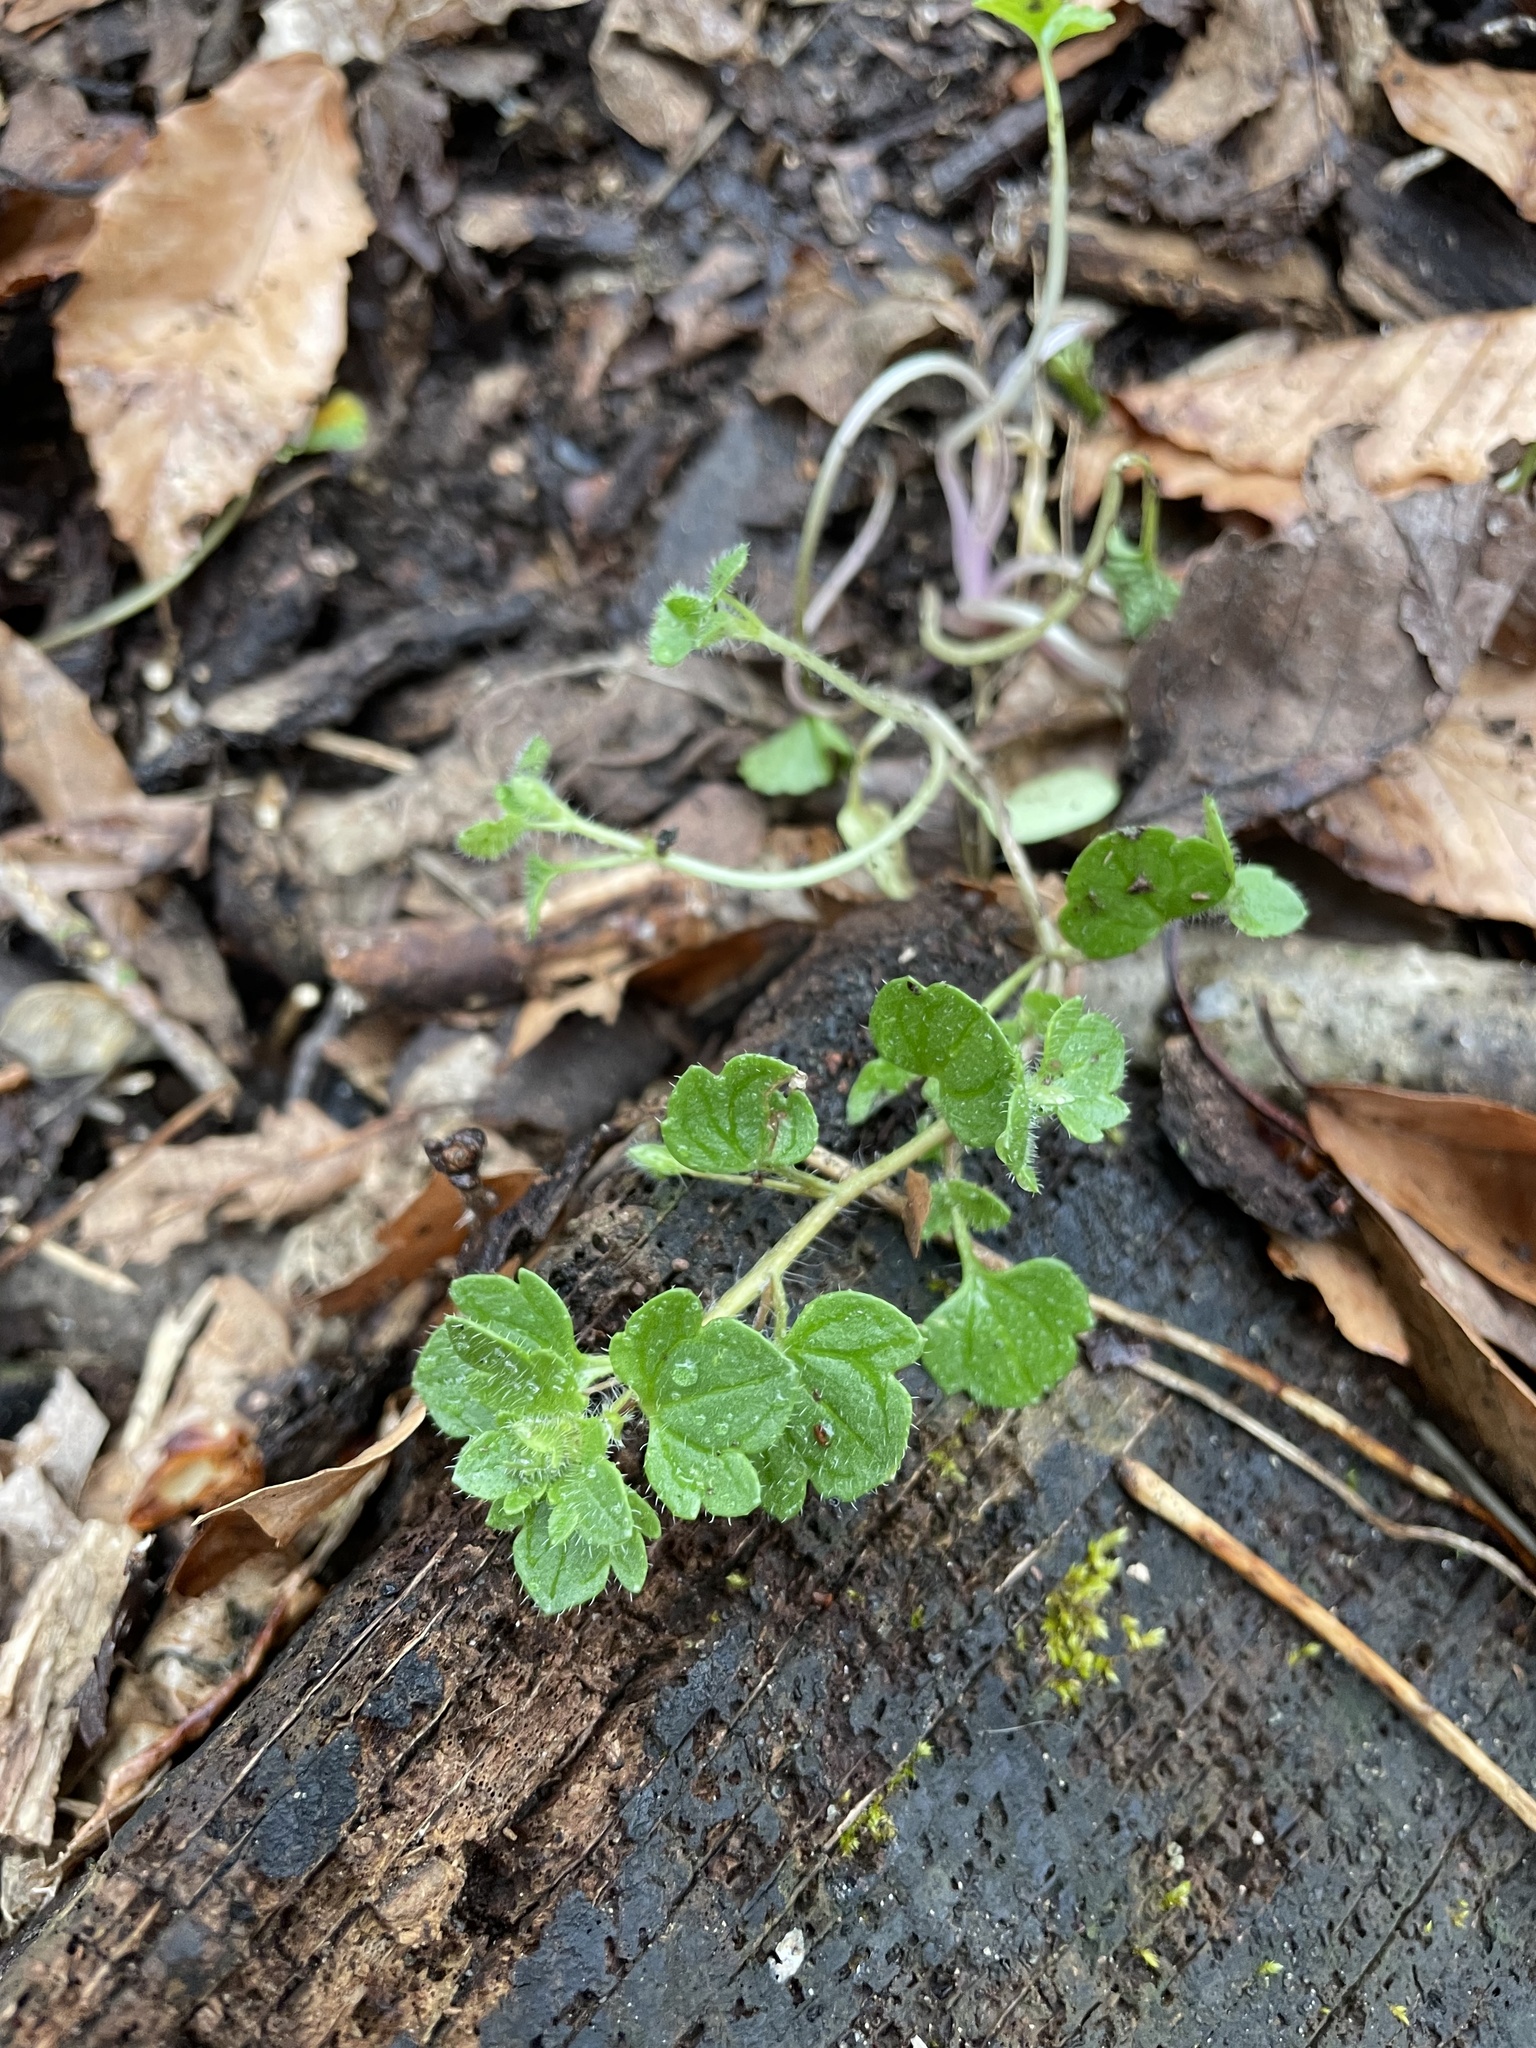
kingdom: Plantae
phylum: Tracheophyta
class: Magnoliopsida
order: Lamiales
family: Plantaginaceae
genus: Veronica
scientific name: Veronica hederifolia
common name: Ivy-leaved speedwell
